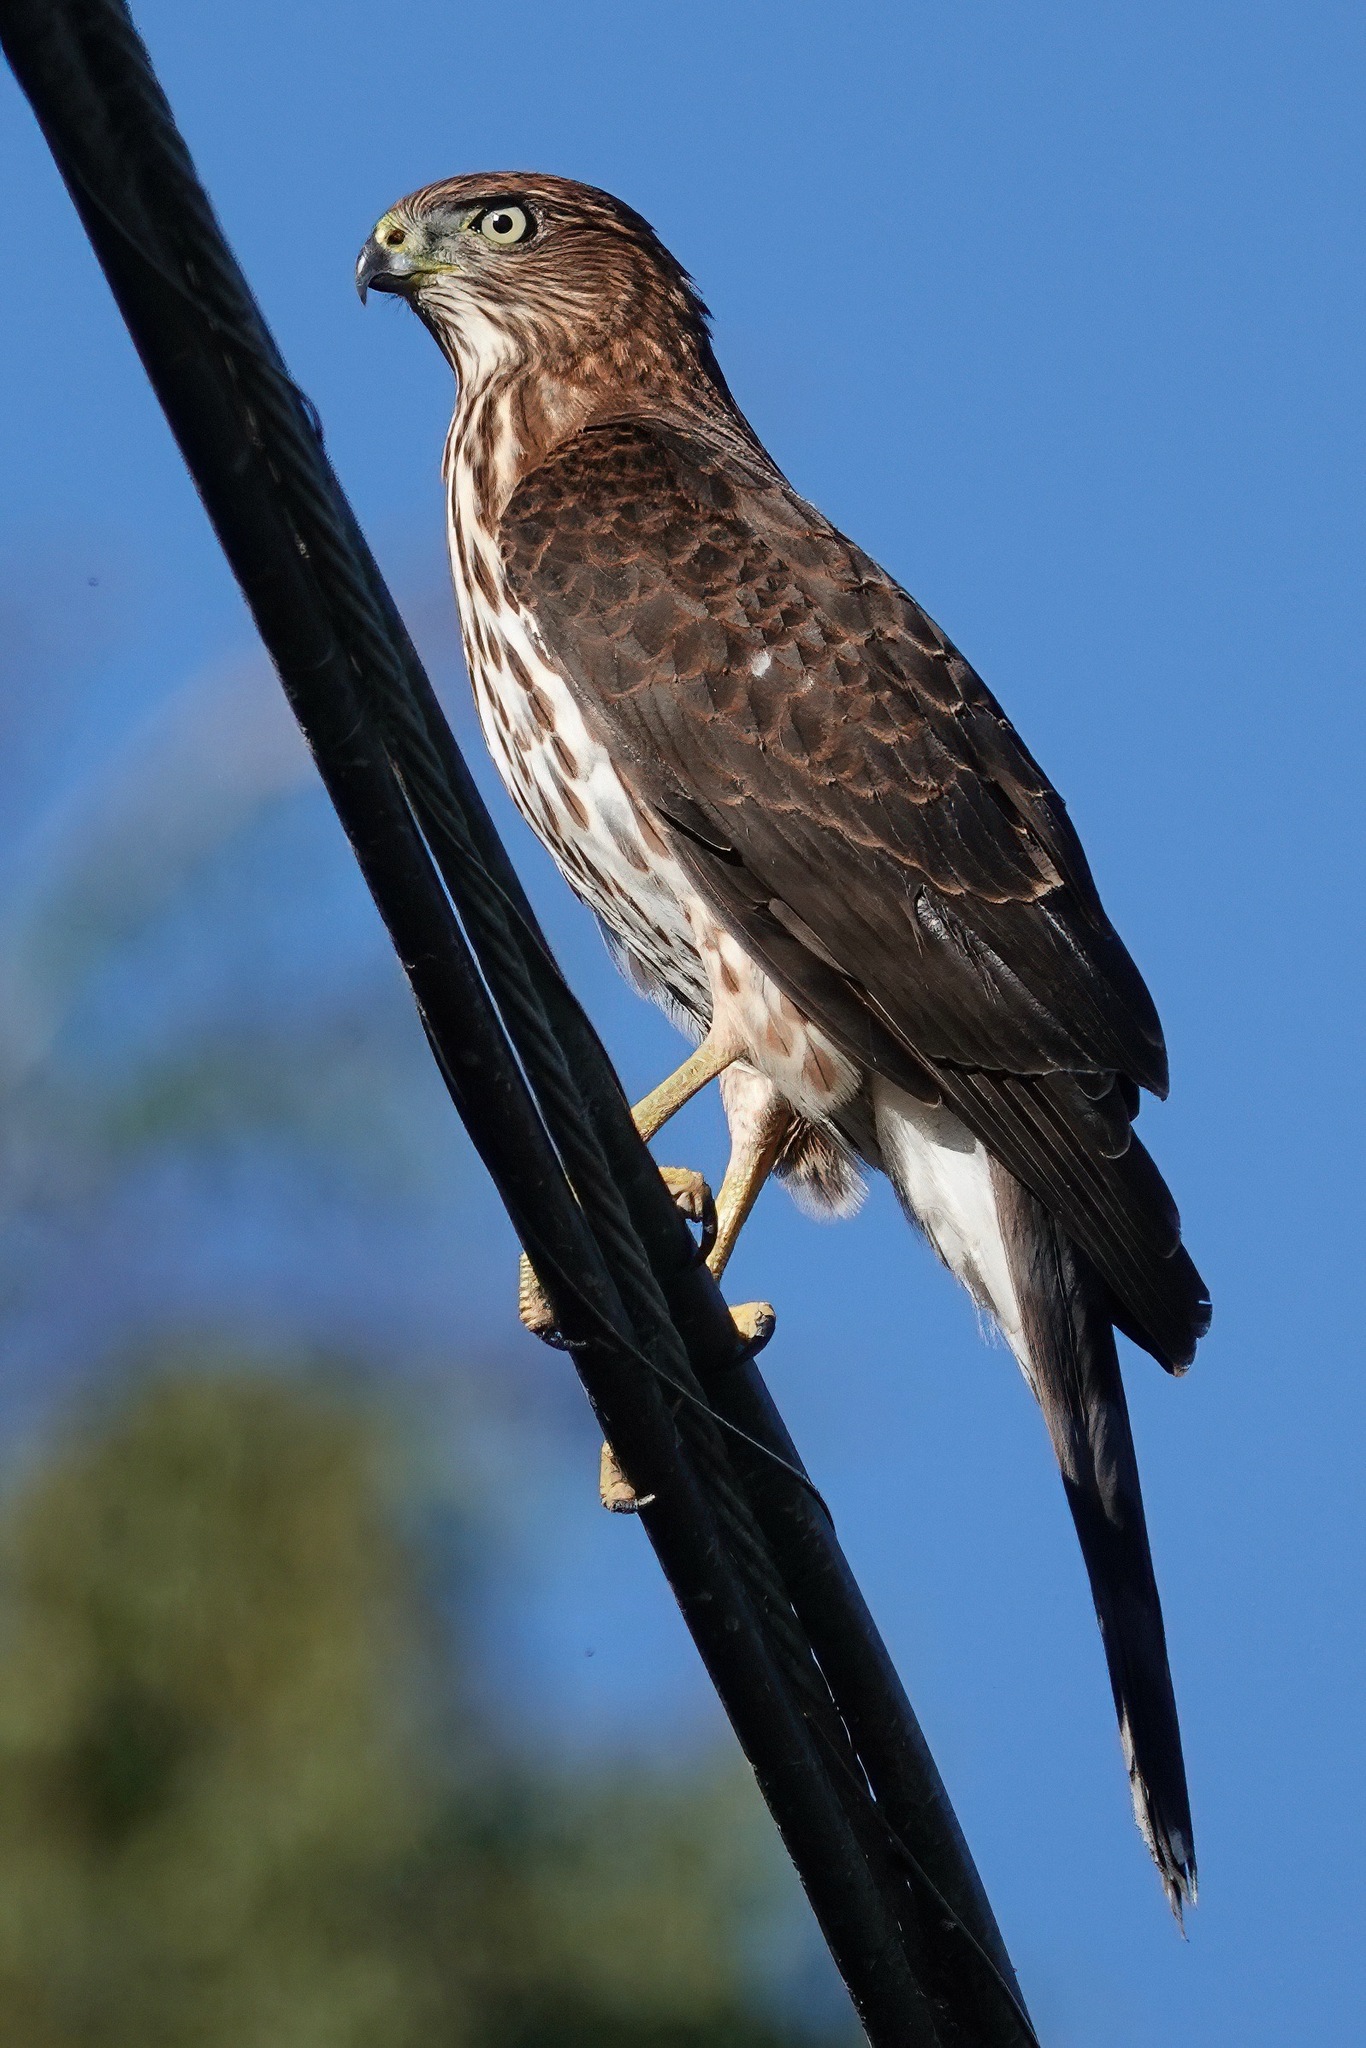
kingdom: Animalia
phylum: Chordata
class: Aves
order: Accipitriformes
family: Accipitridae
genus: Accipiter
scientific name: Accipiter cooperii
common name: Cooper's hawk
